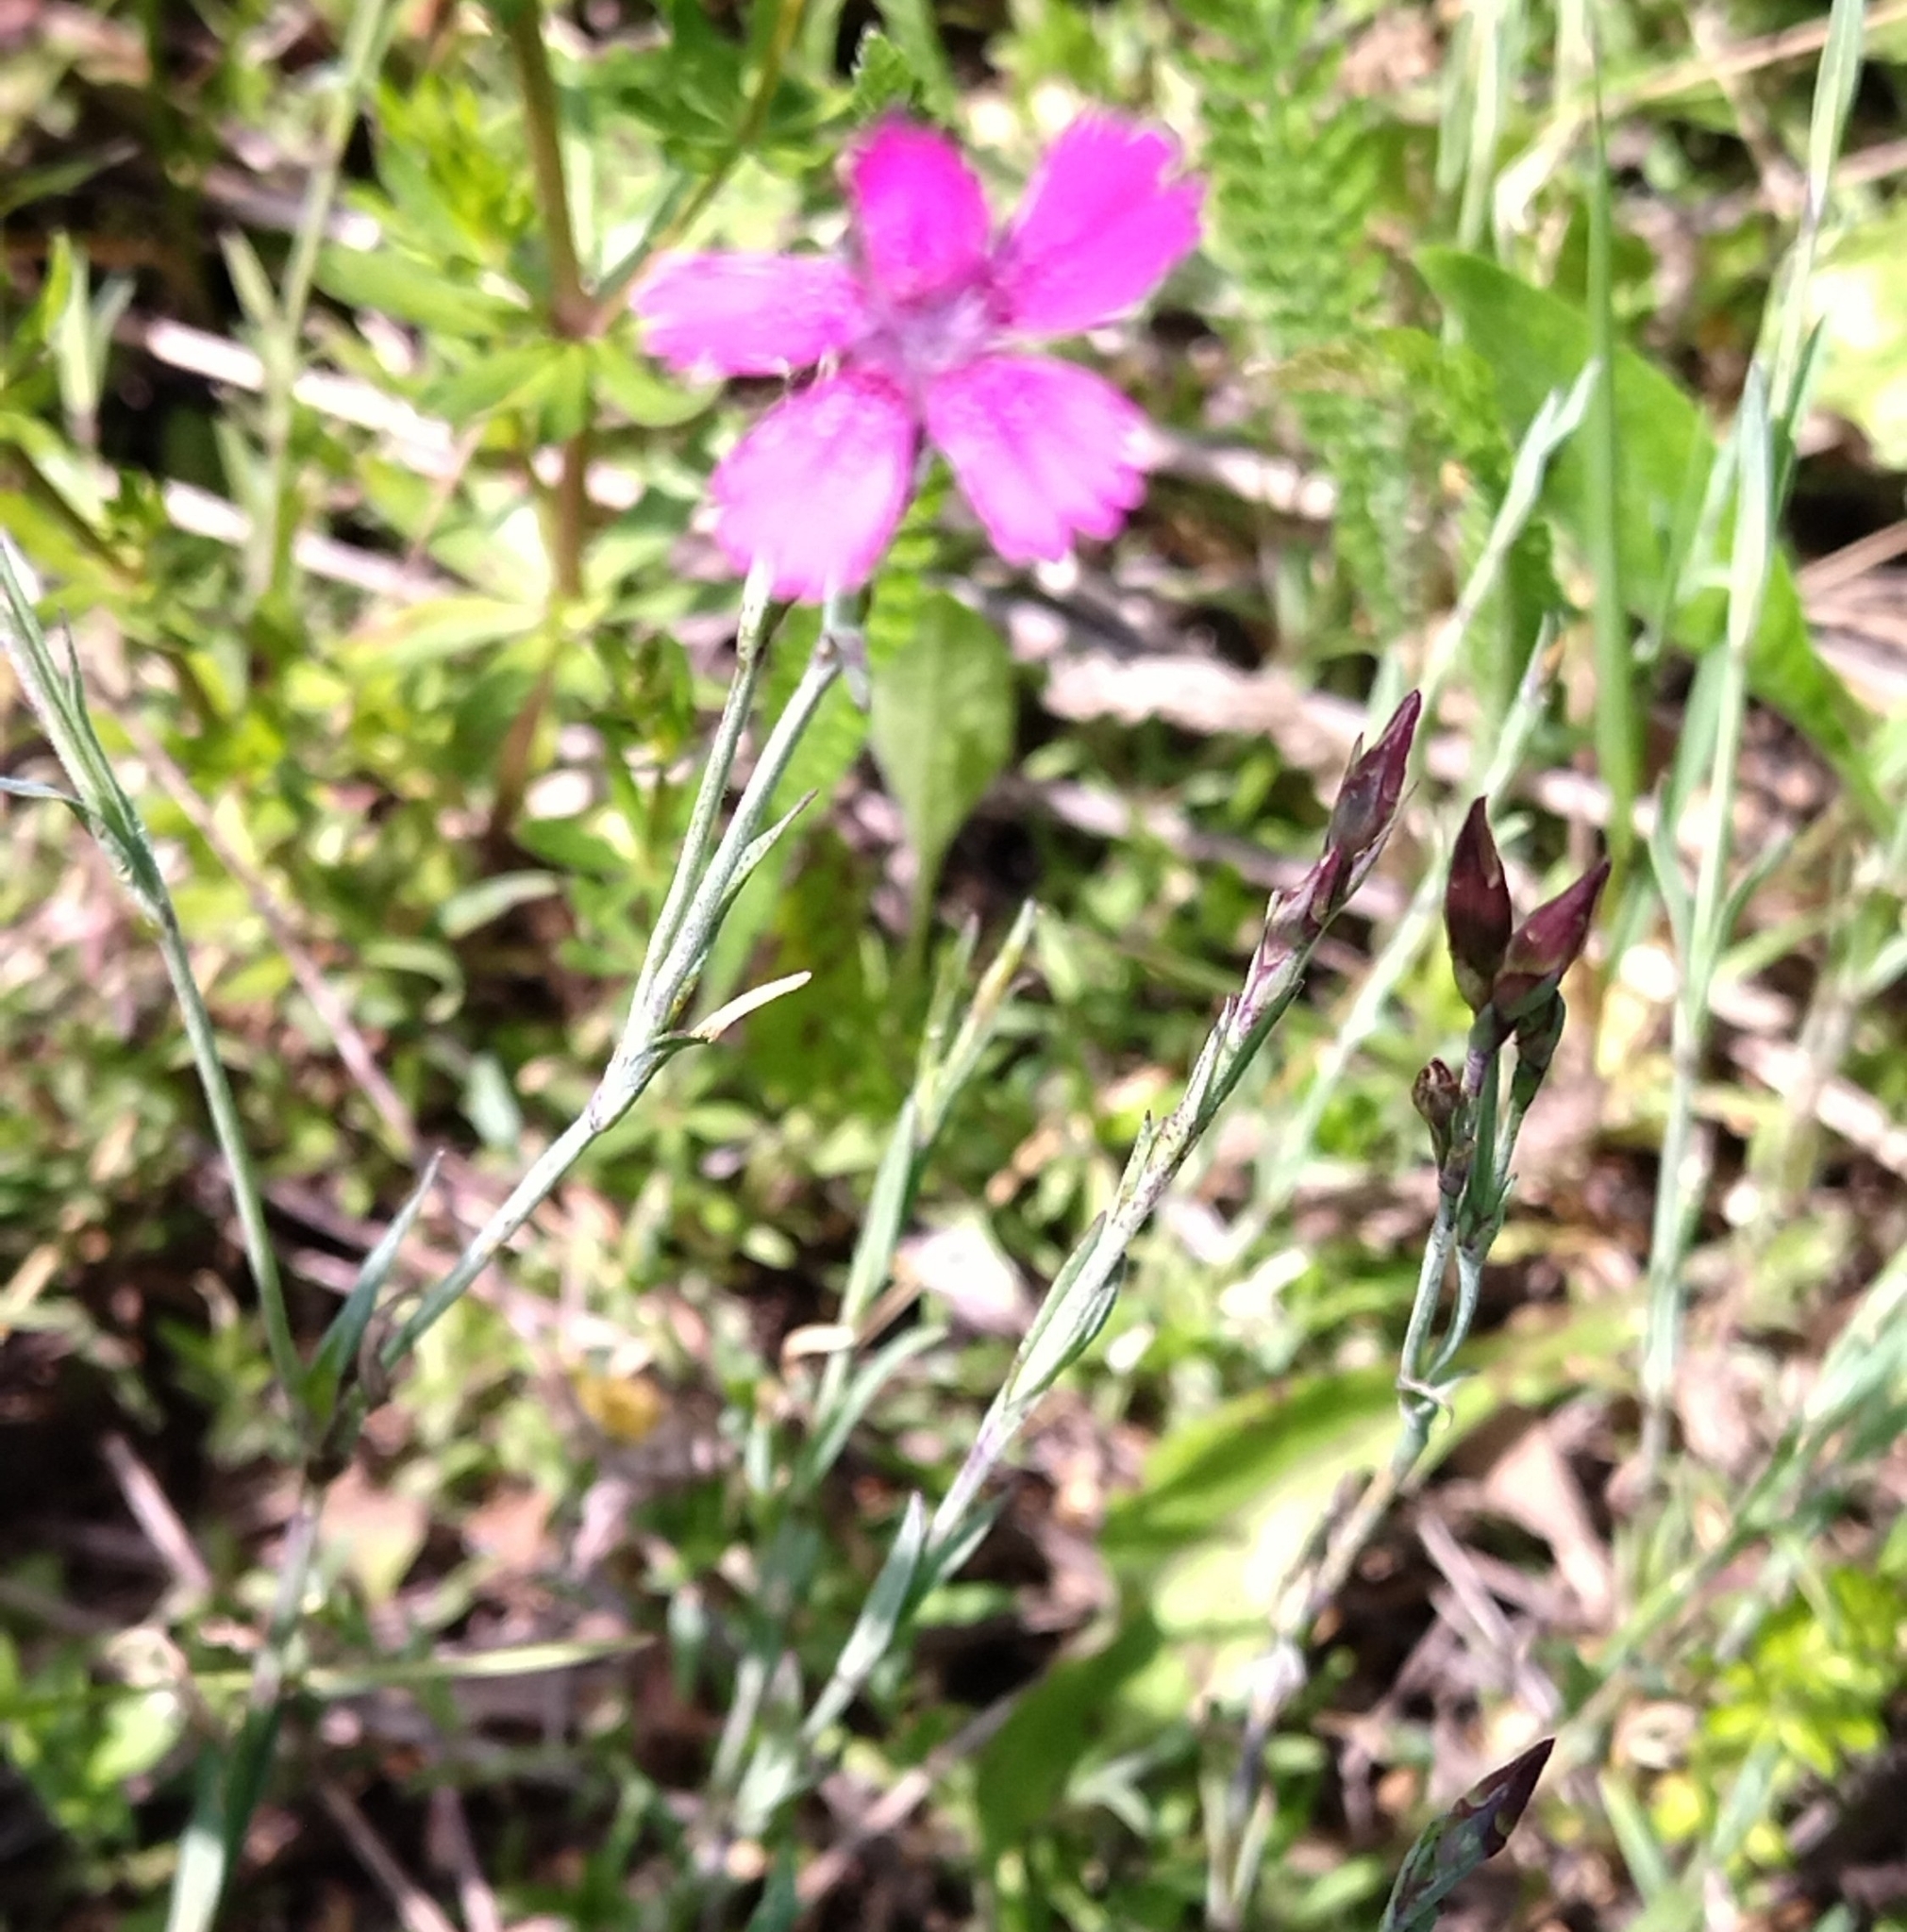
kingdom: Plantae
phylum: Tracheophyta
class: Magnoliopsida
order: Caryophyllales
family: Caryophyllaceae
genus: Dianthus
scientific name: Dianthus deltoides
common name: Maiden pink
